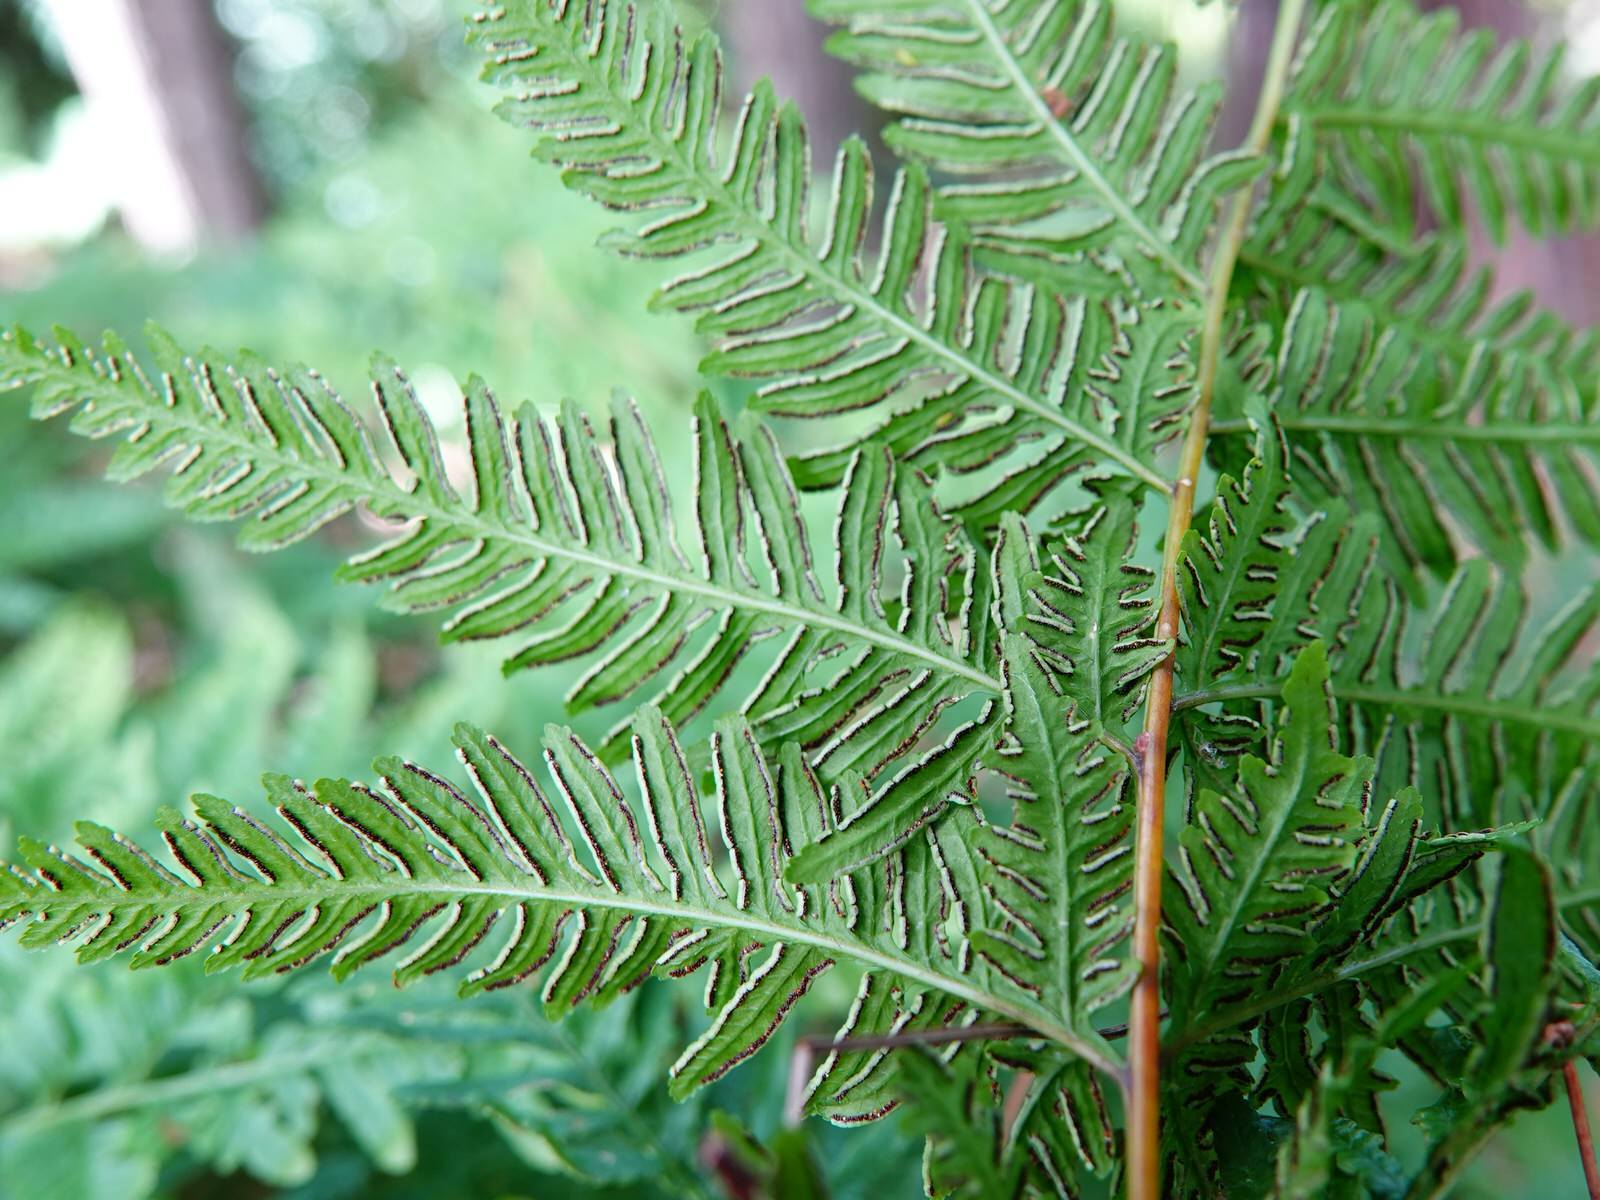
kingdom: Plantae
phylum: Tracheophyta
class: Polypodiopsida
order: Polypodiales
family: Pteridaceae
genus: Pteris
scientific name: Pteris tremula
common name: Australian brake
